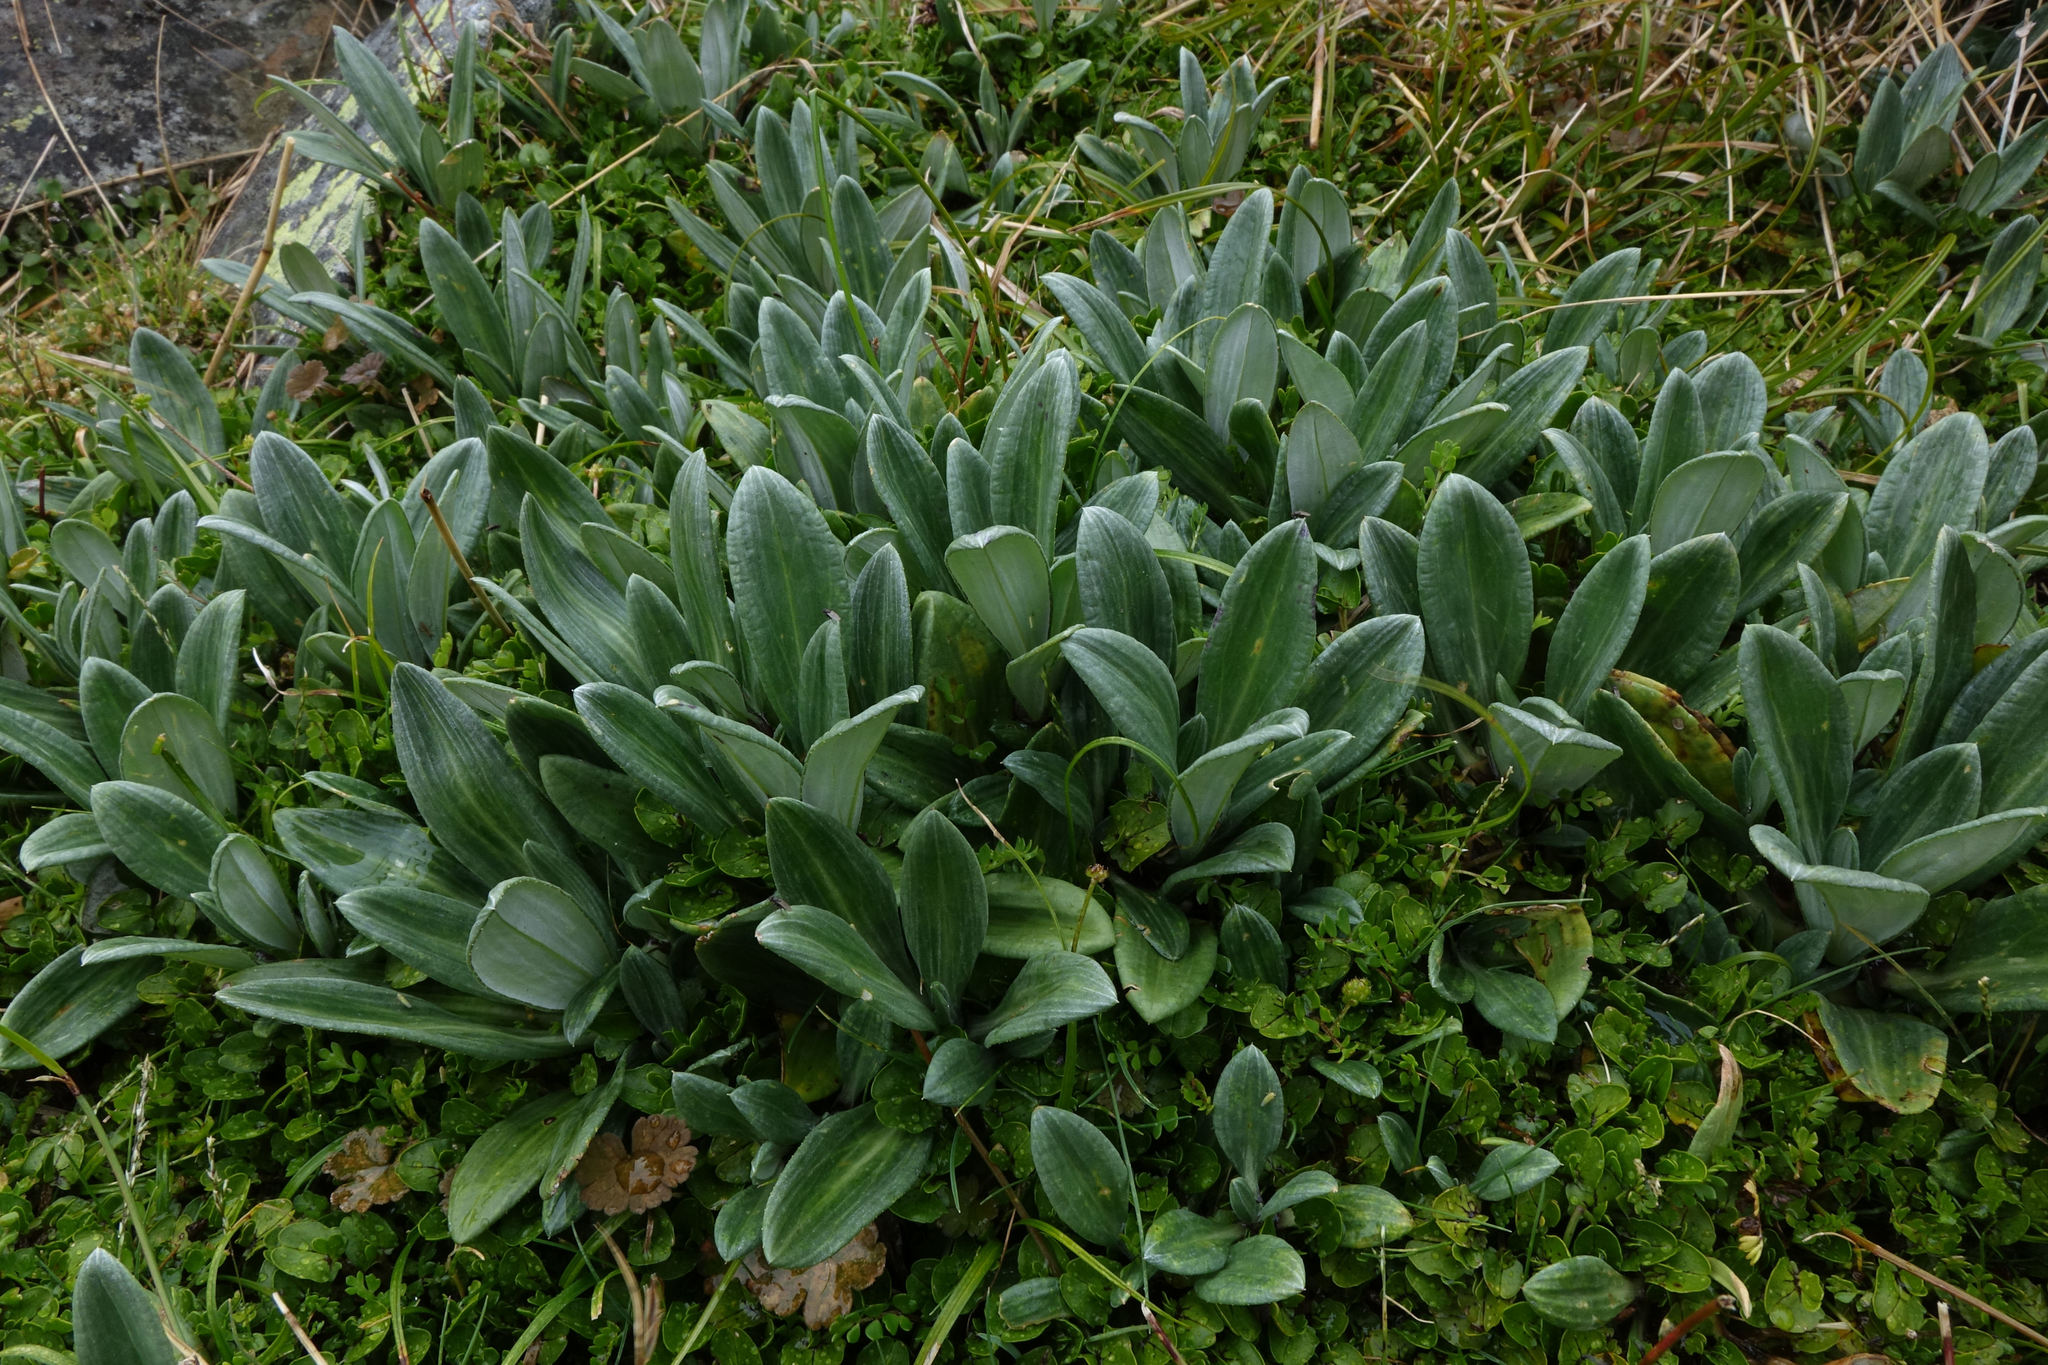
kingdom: Plantae
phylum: Tracheophyta
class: Magnoliopsida
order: Asterales
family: Asteraceae
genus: Celmisia
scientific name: Celmisia haastii
